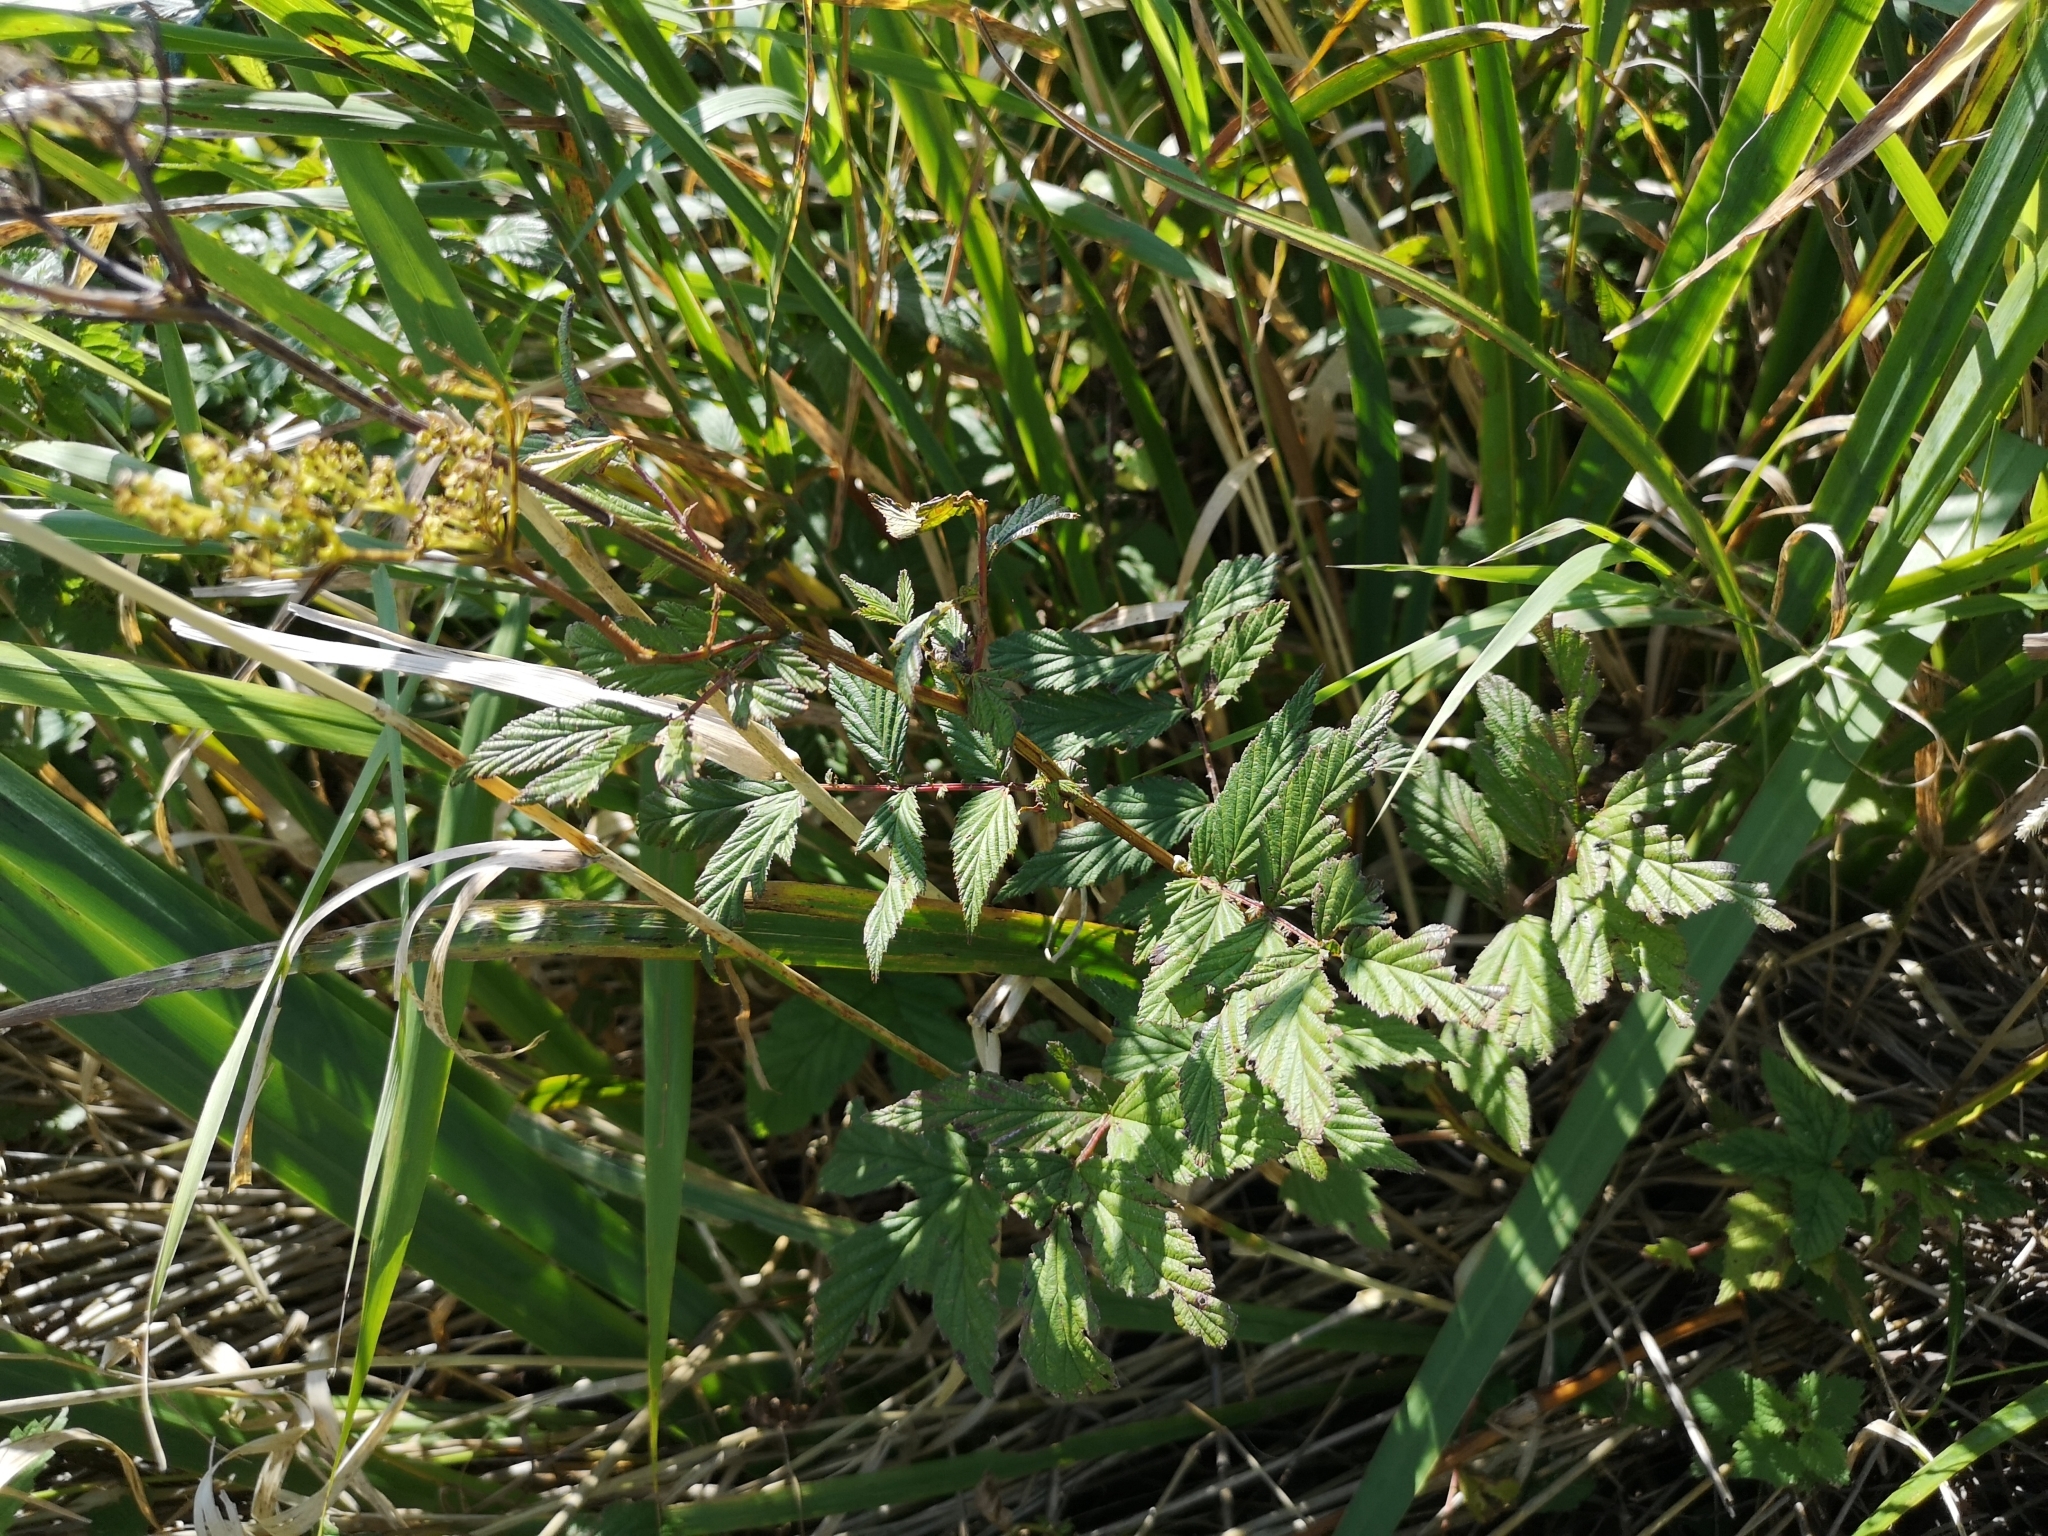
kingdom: Plantae
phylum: Tracheophyta
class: Magnoliopsida
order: Rosales
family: Rosaceae
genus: Filipendula
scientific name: Filipendula ulmaria
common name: Meadowsweet
